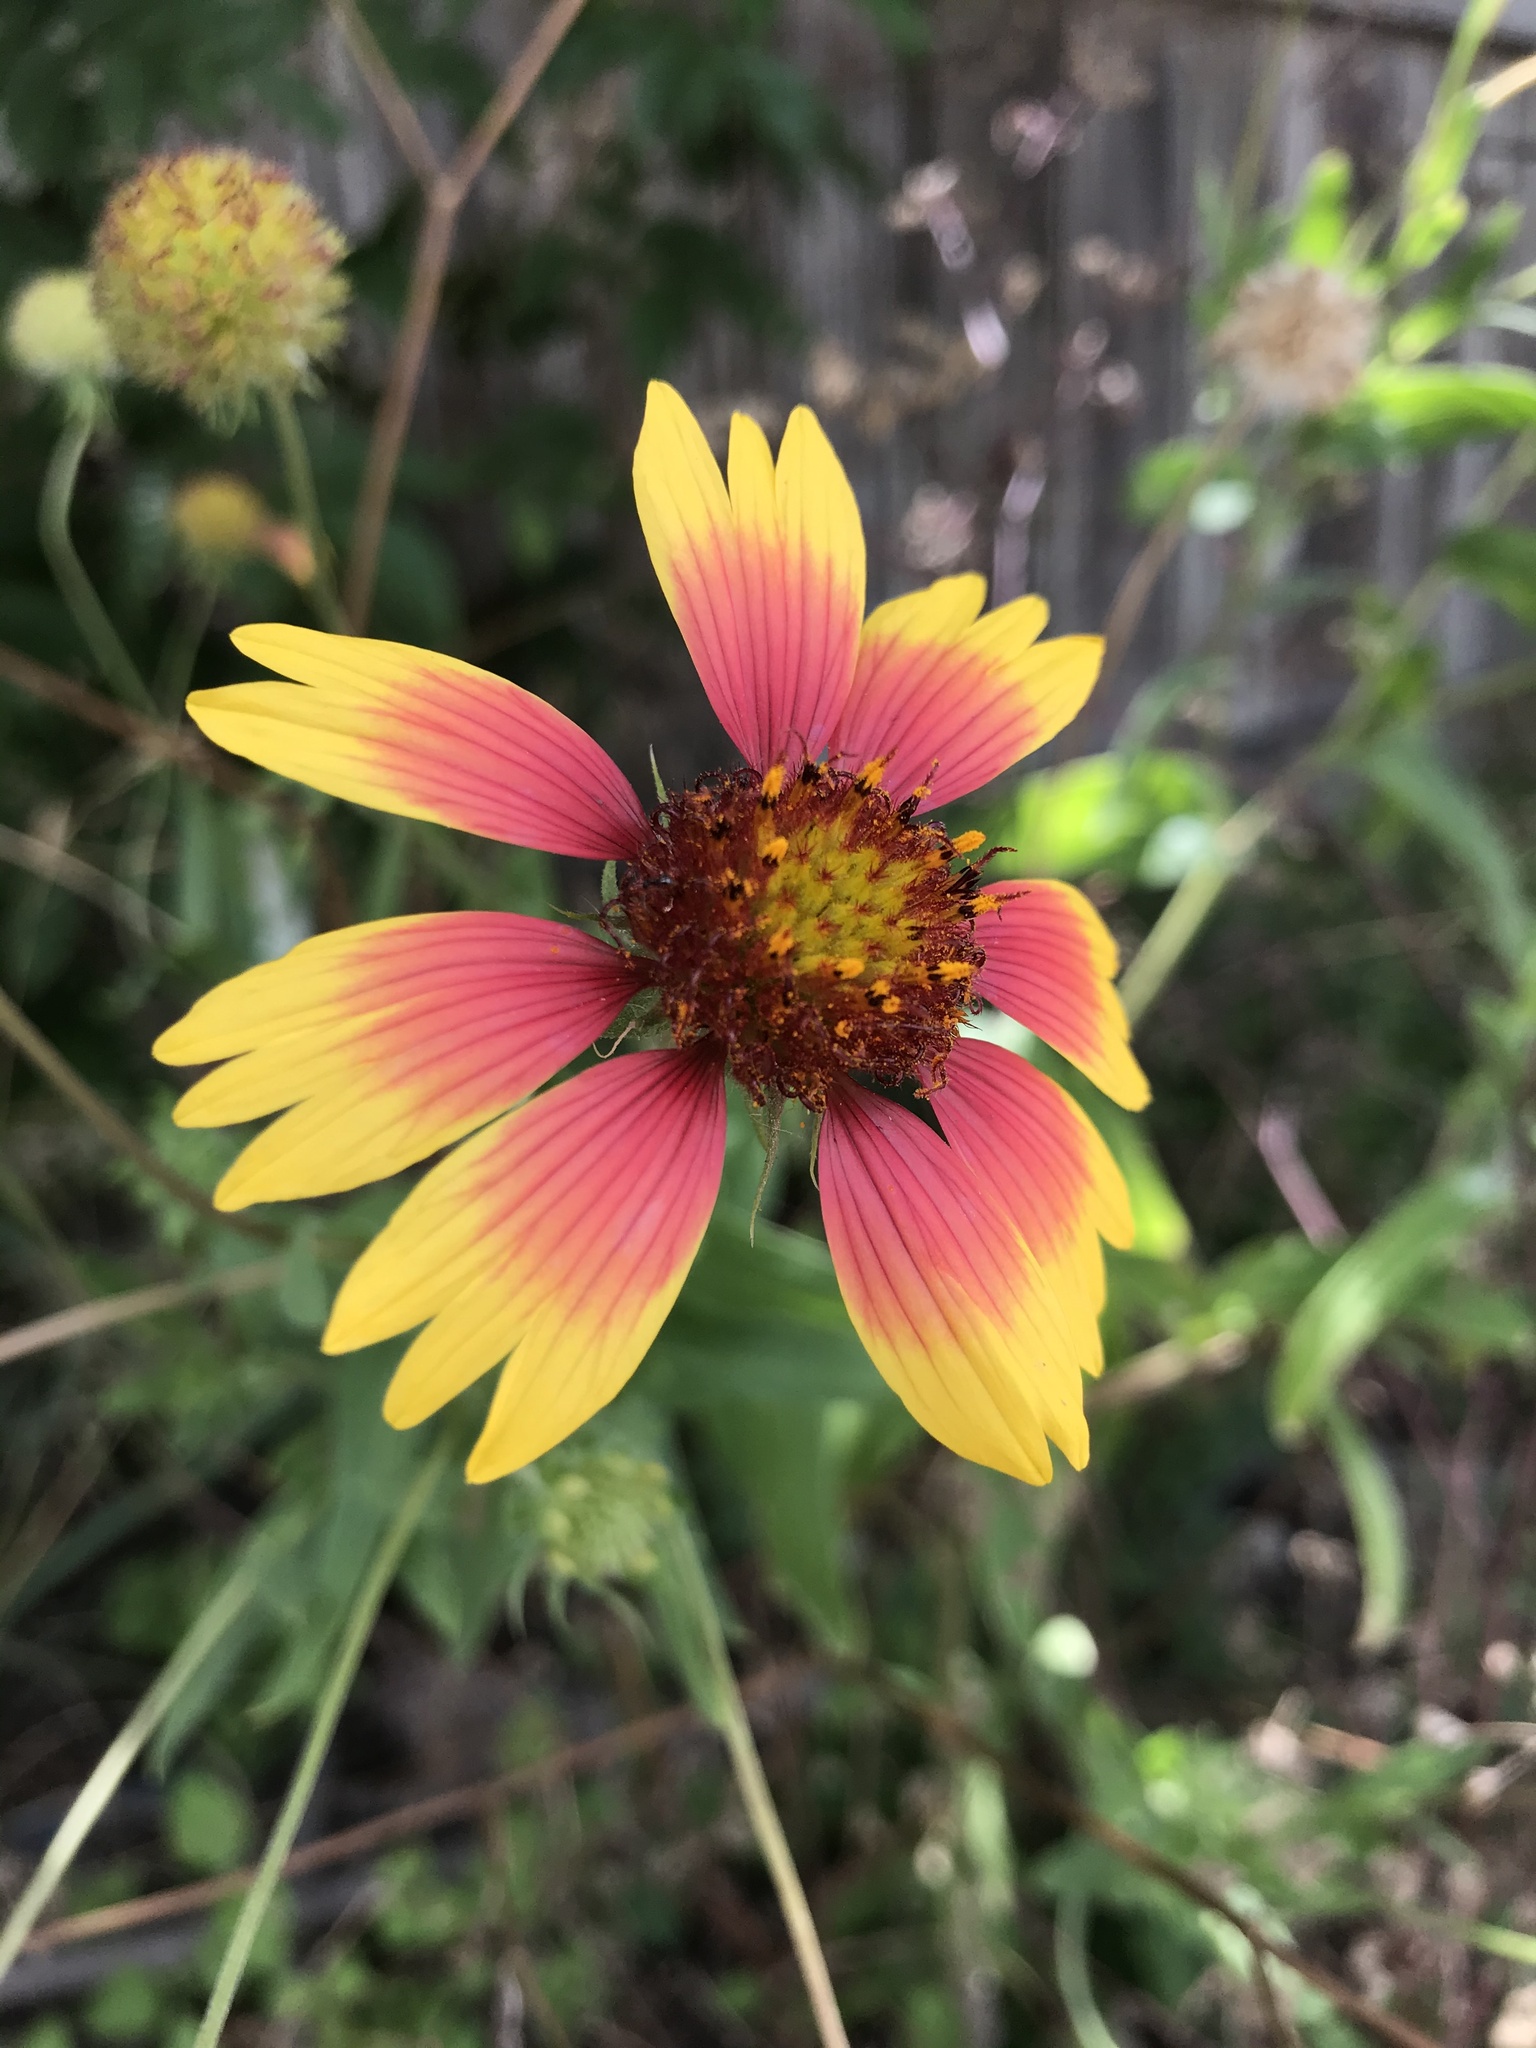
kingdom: Plantae
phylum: Tracheophyta
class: Magnoliopsida
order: Asterales
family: Asteraceae
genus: Gaillardia
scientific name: Gaillardia pulchella
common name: Firewheel
